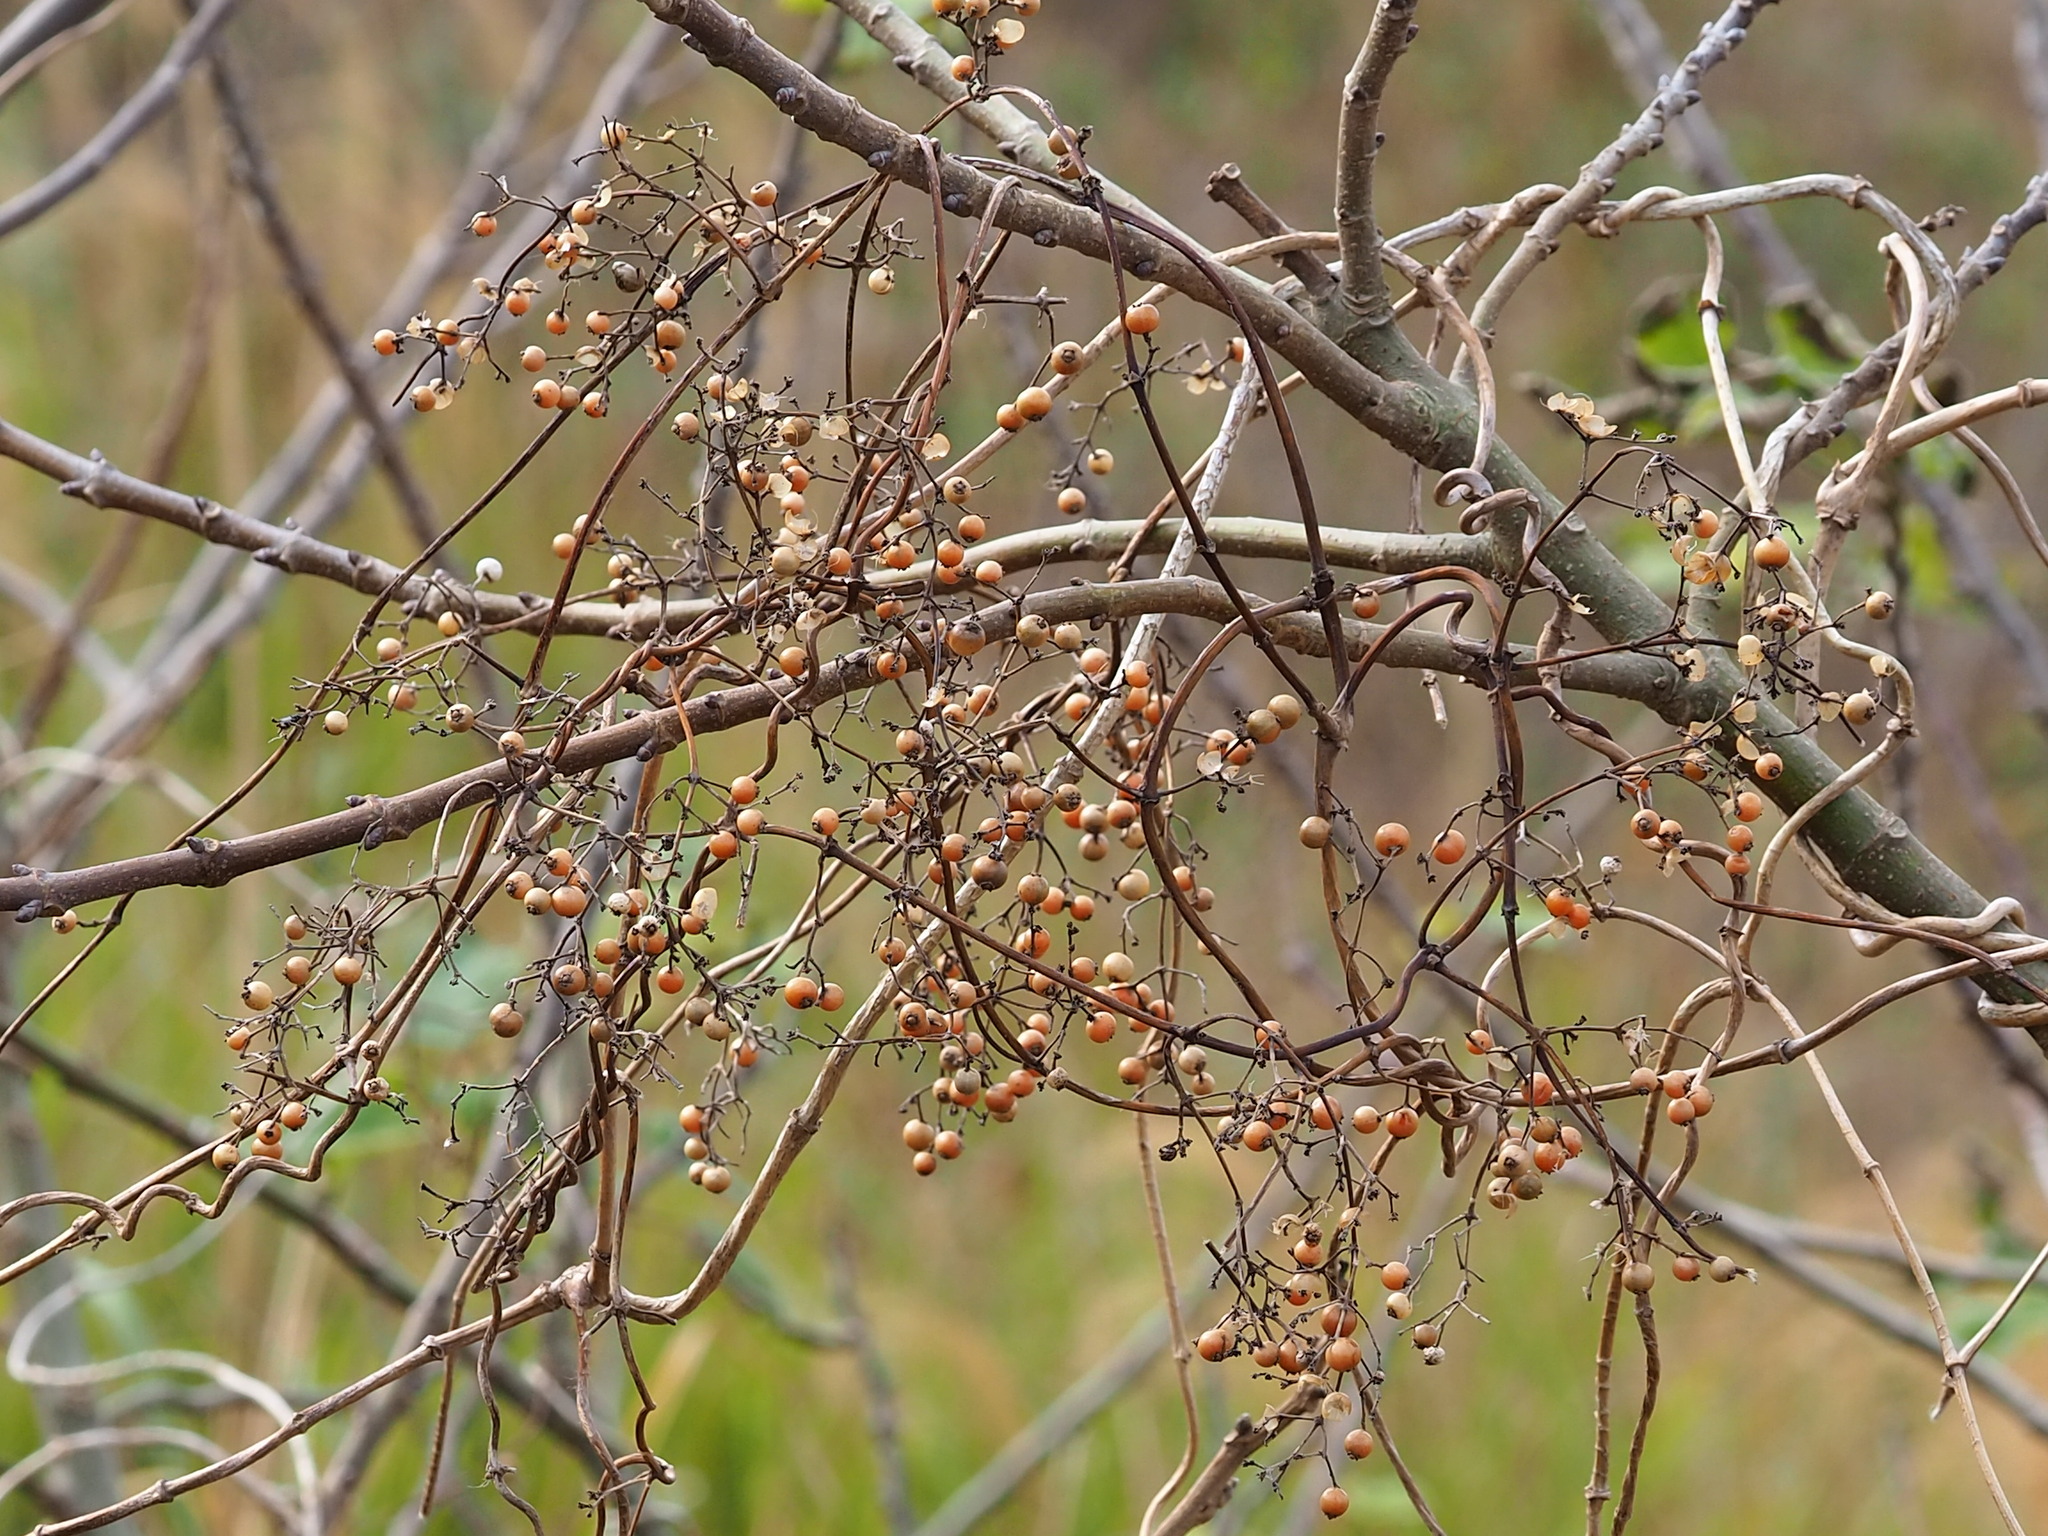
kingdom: Plantae
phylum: Tracheophyta
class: Magnoliopsida
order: Gentianales
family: Rubiaceae
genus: Paederia
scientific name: Paederia foetida
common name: Stinkvine
